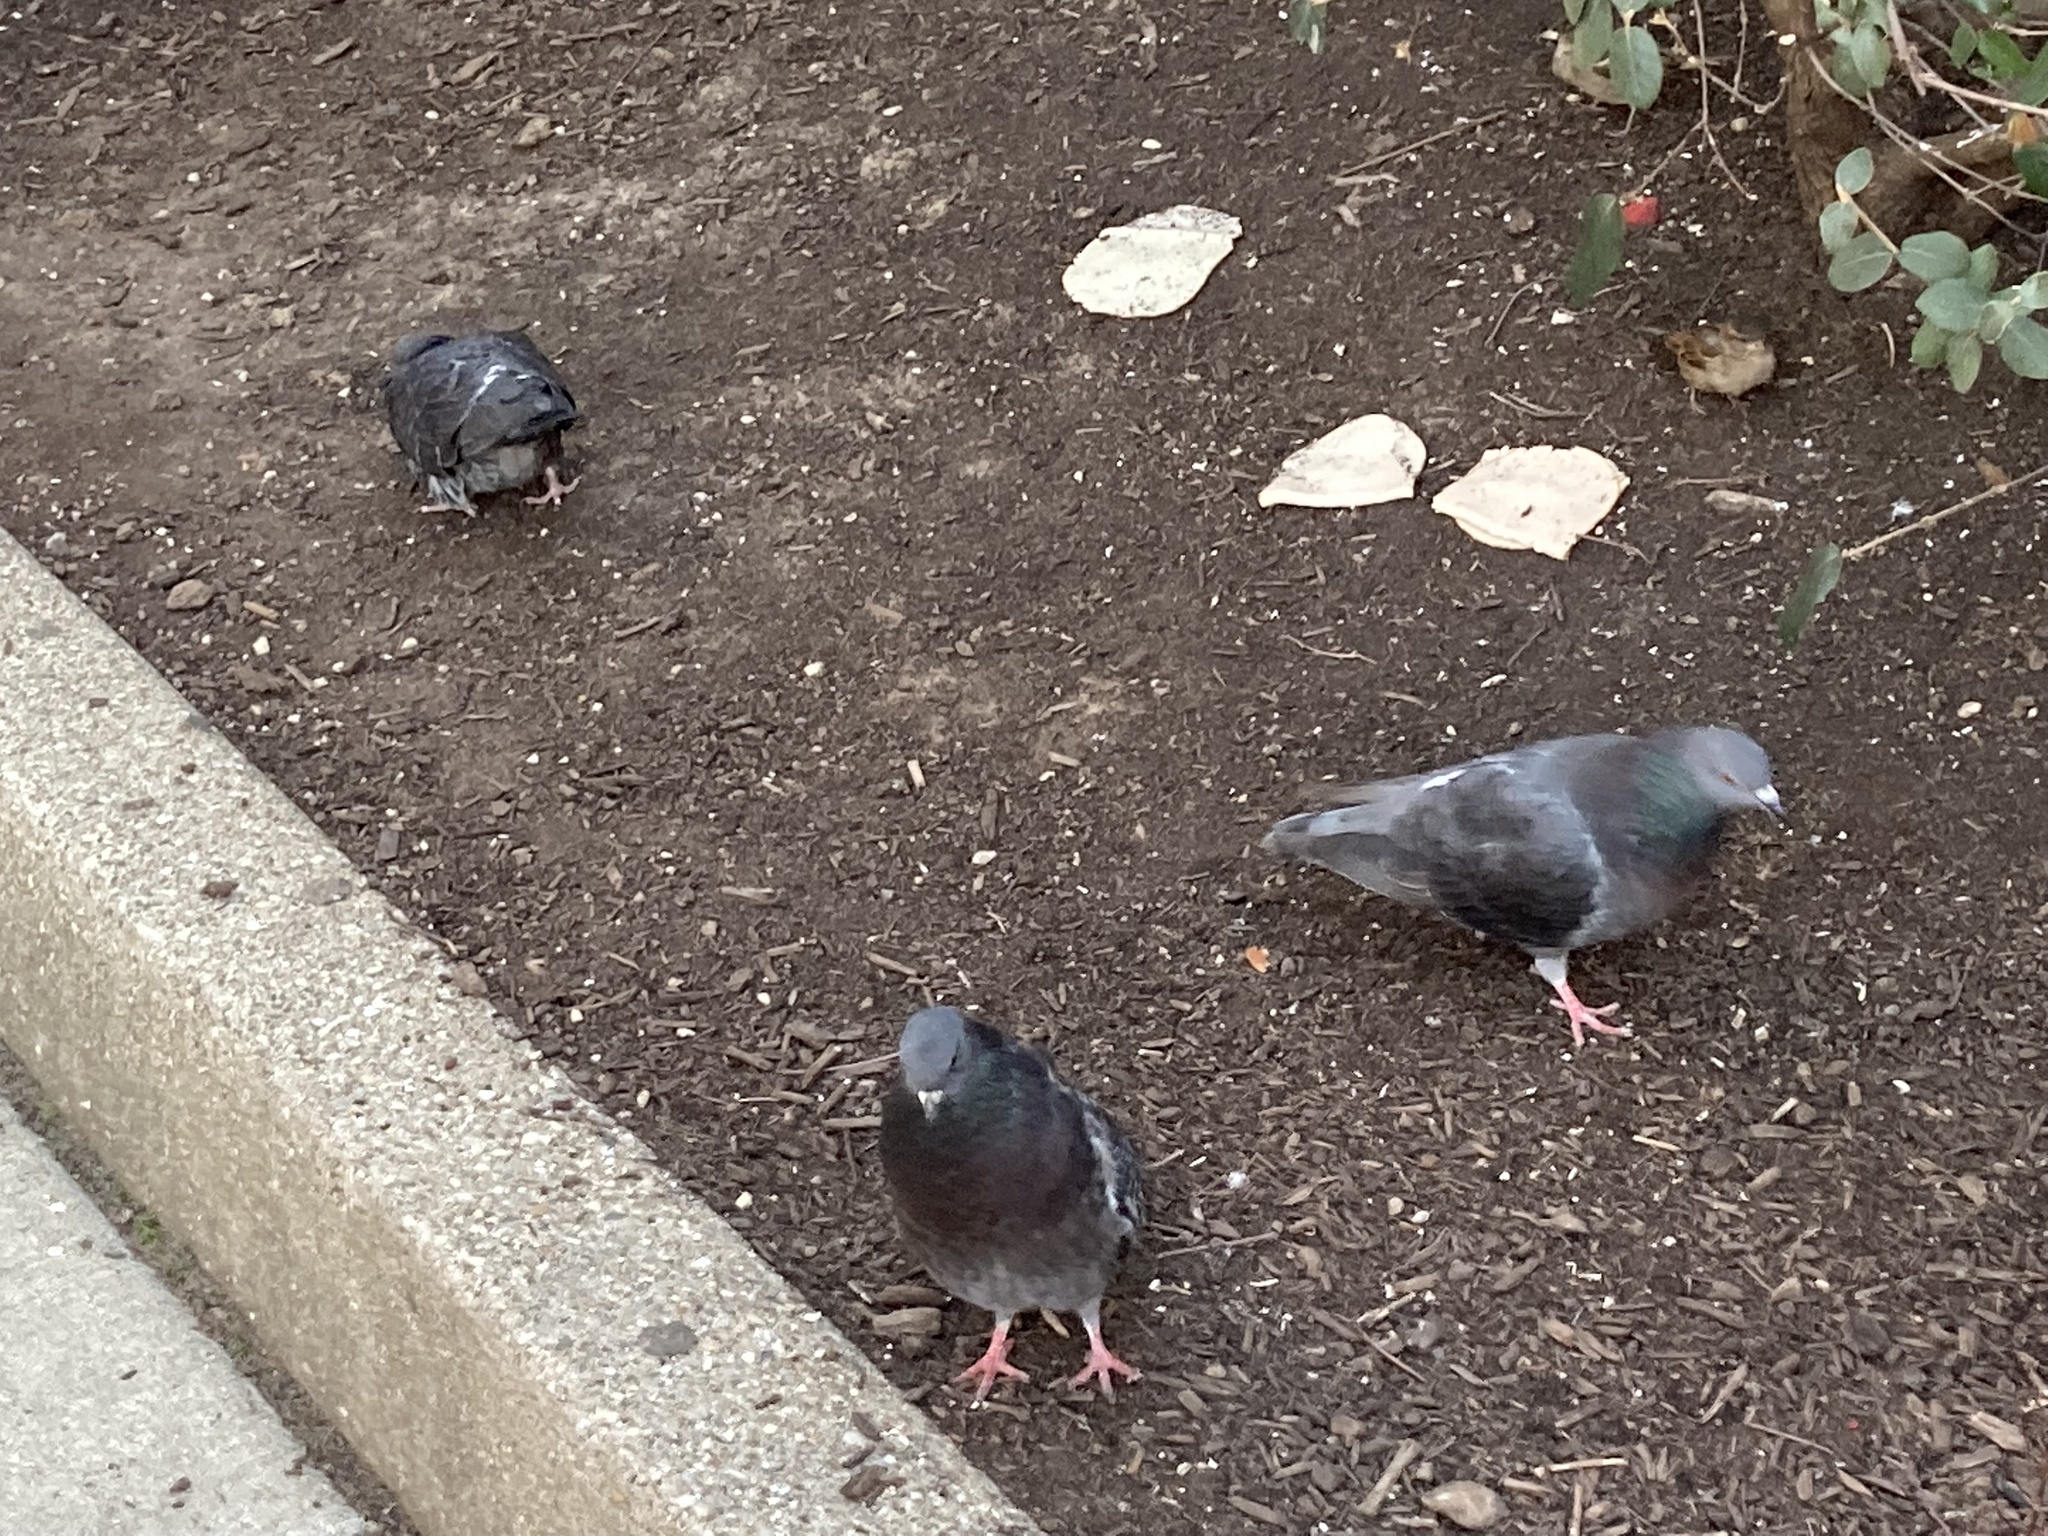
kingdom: Animalia
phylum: Chordata
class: Aves
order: Columbiformes
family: Columbidae
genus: Columba
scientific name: Columba livia
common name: Rock pigeon
